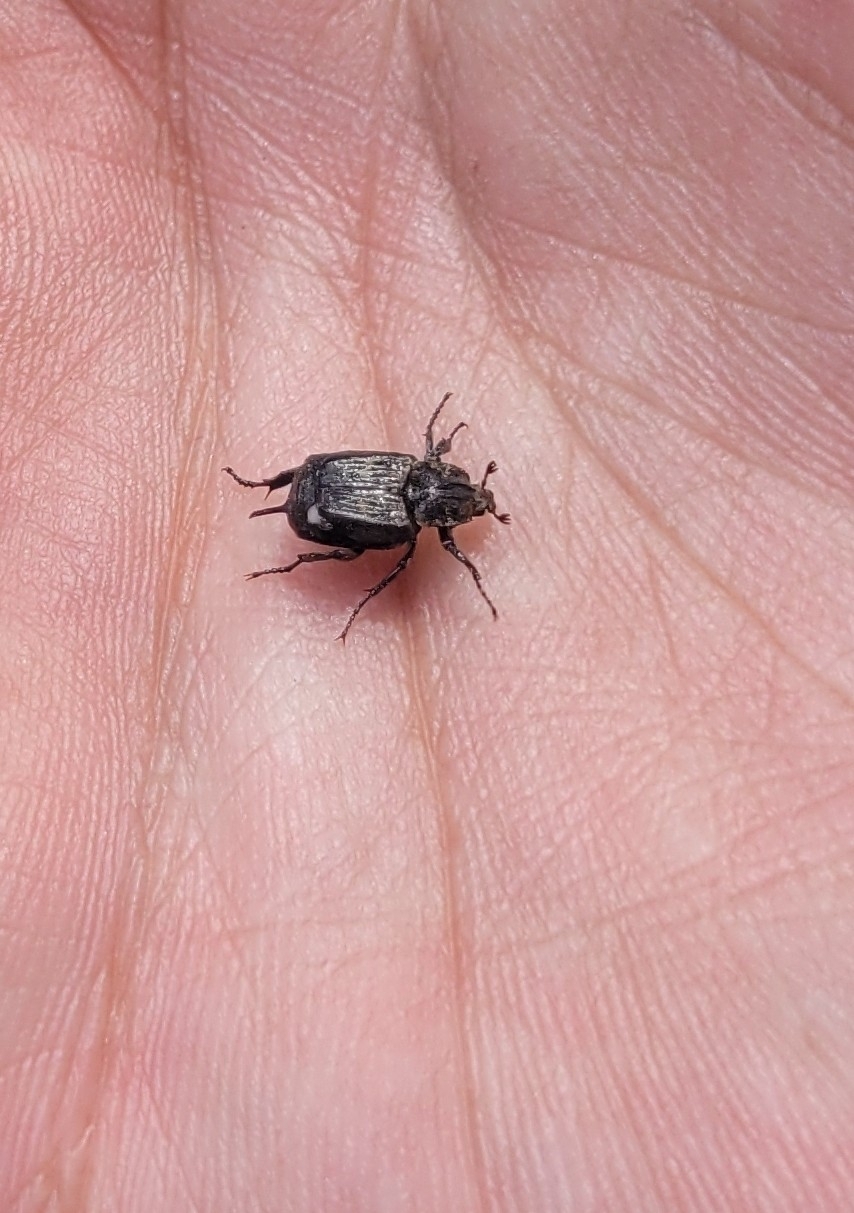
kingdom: Animalia
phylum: Arthropoda
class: Insecta
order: Coleoptera
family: Scarabaeidae
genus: Valgus
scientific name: Valgus hemipterus
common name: Bug flower chafer
